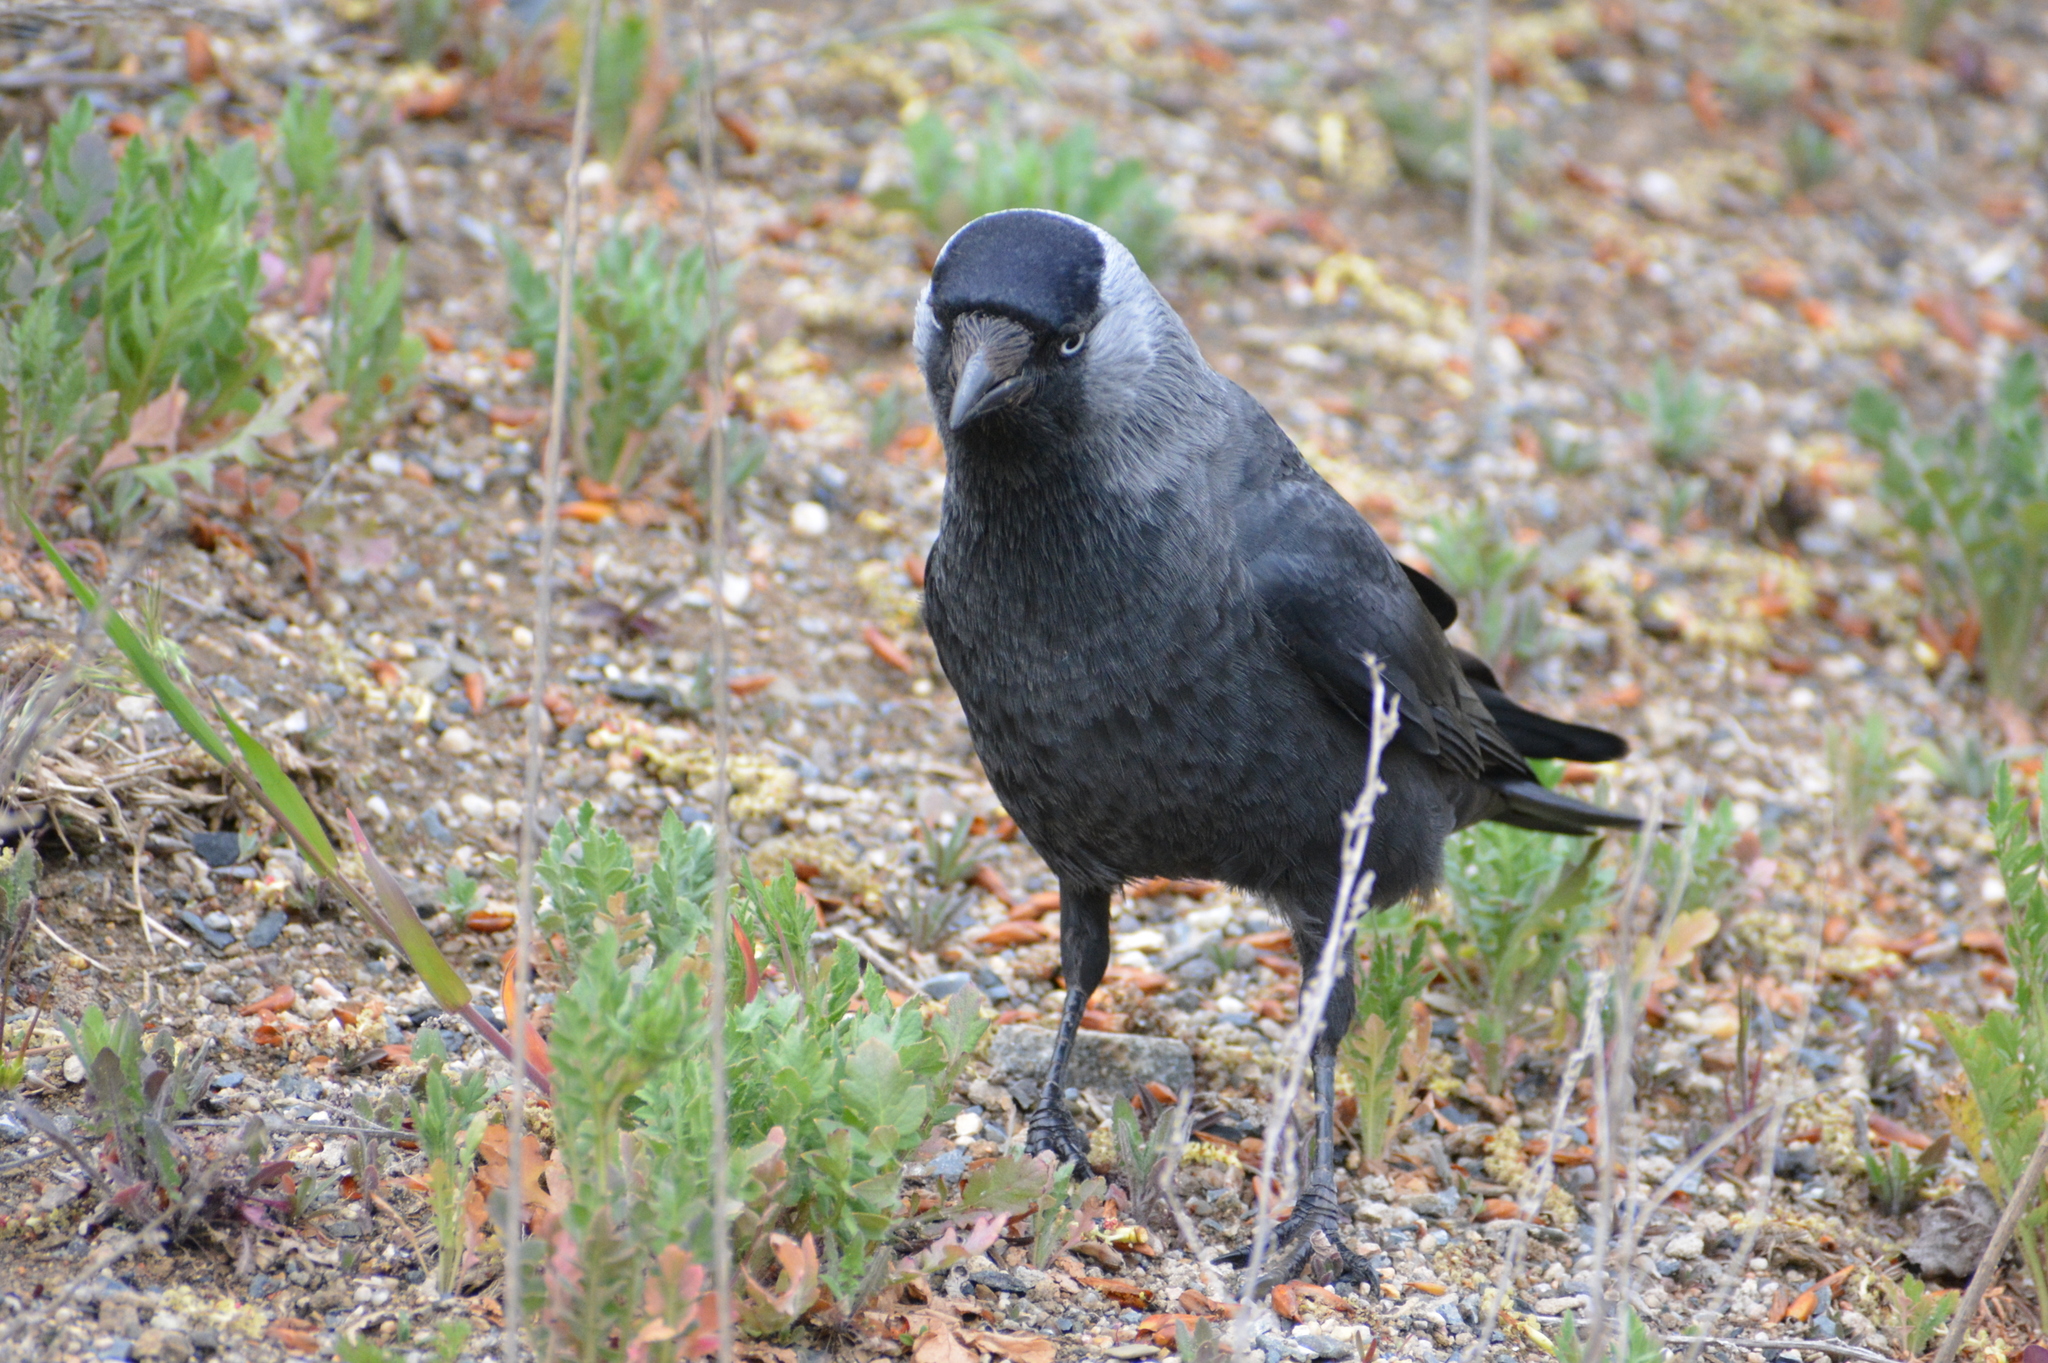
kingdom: Animalia
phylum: Chordata
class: Aves
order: Passeriformes
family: Corvidae
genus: Coloeus
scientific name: Coloeus monedula
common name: Western jackdaw
